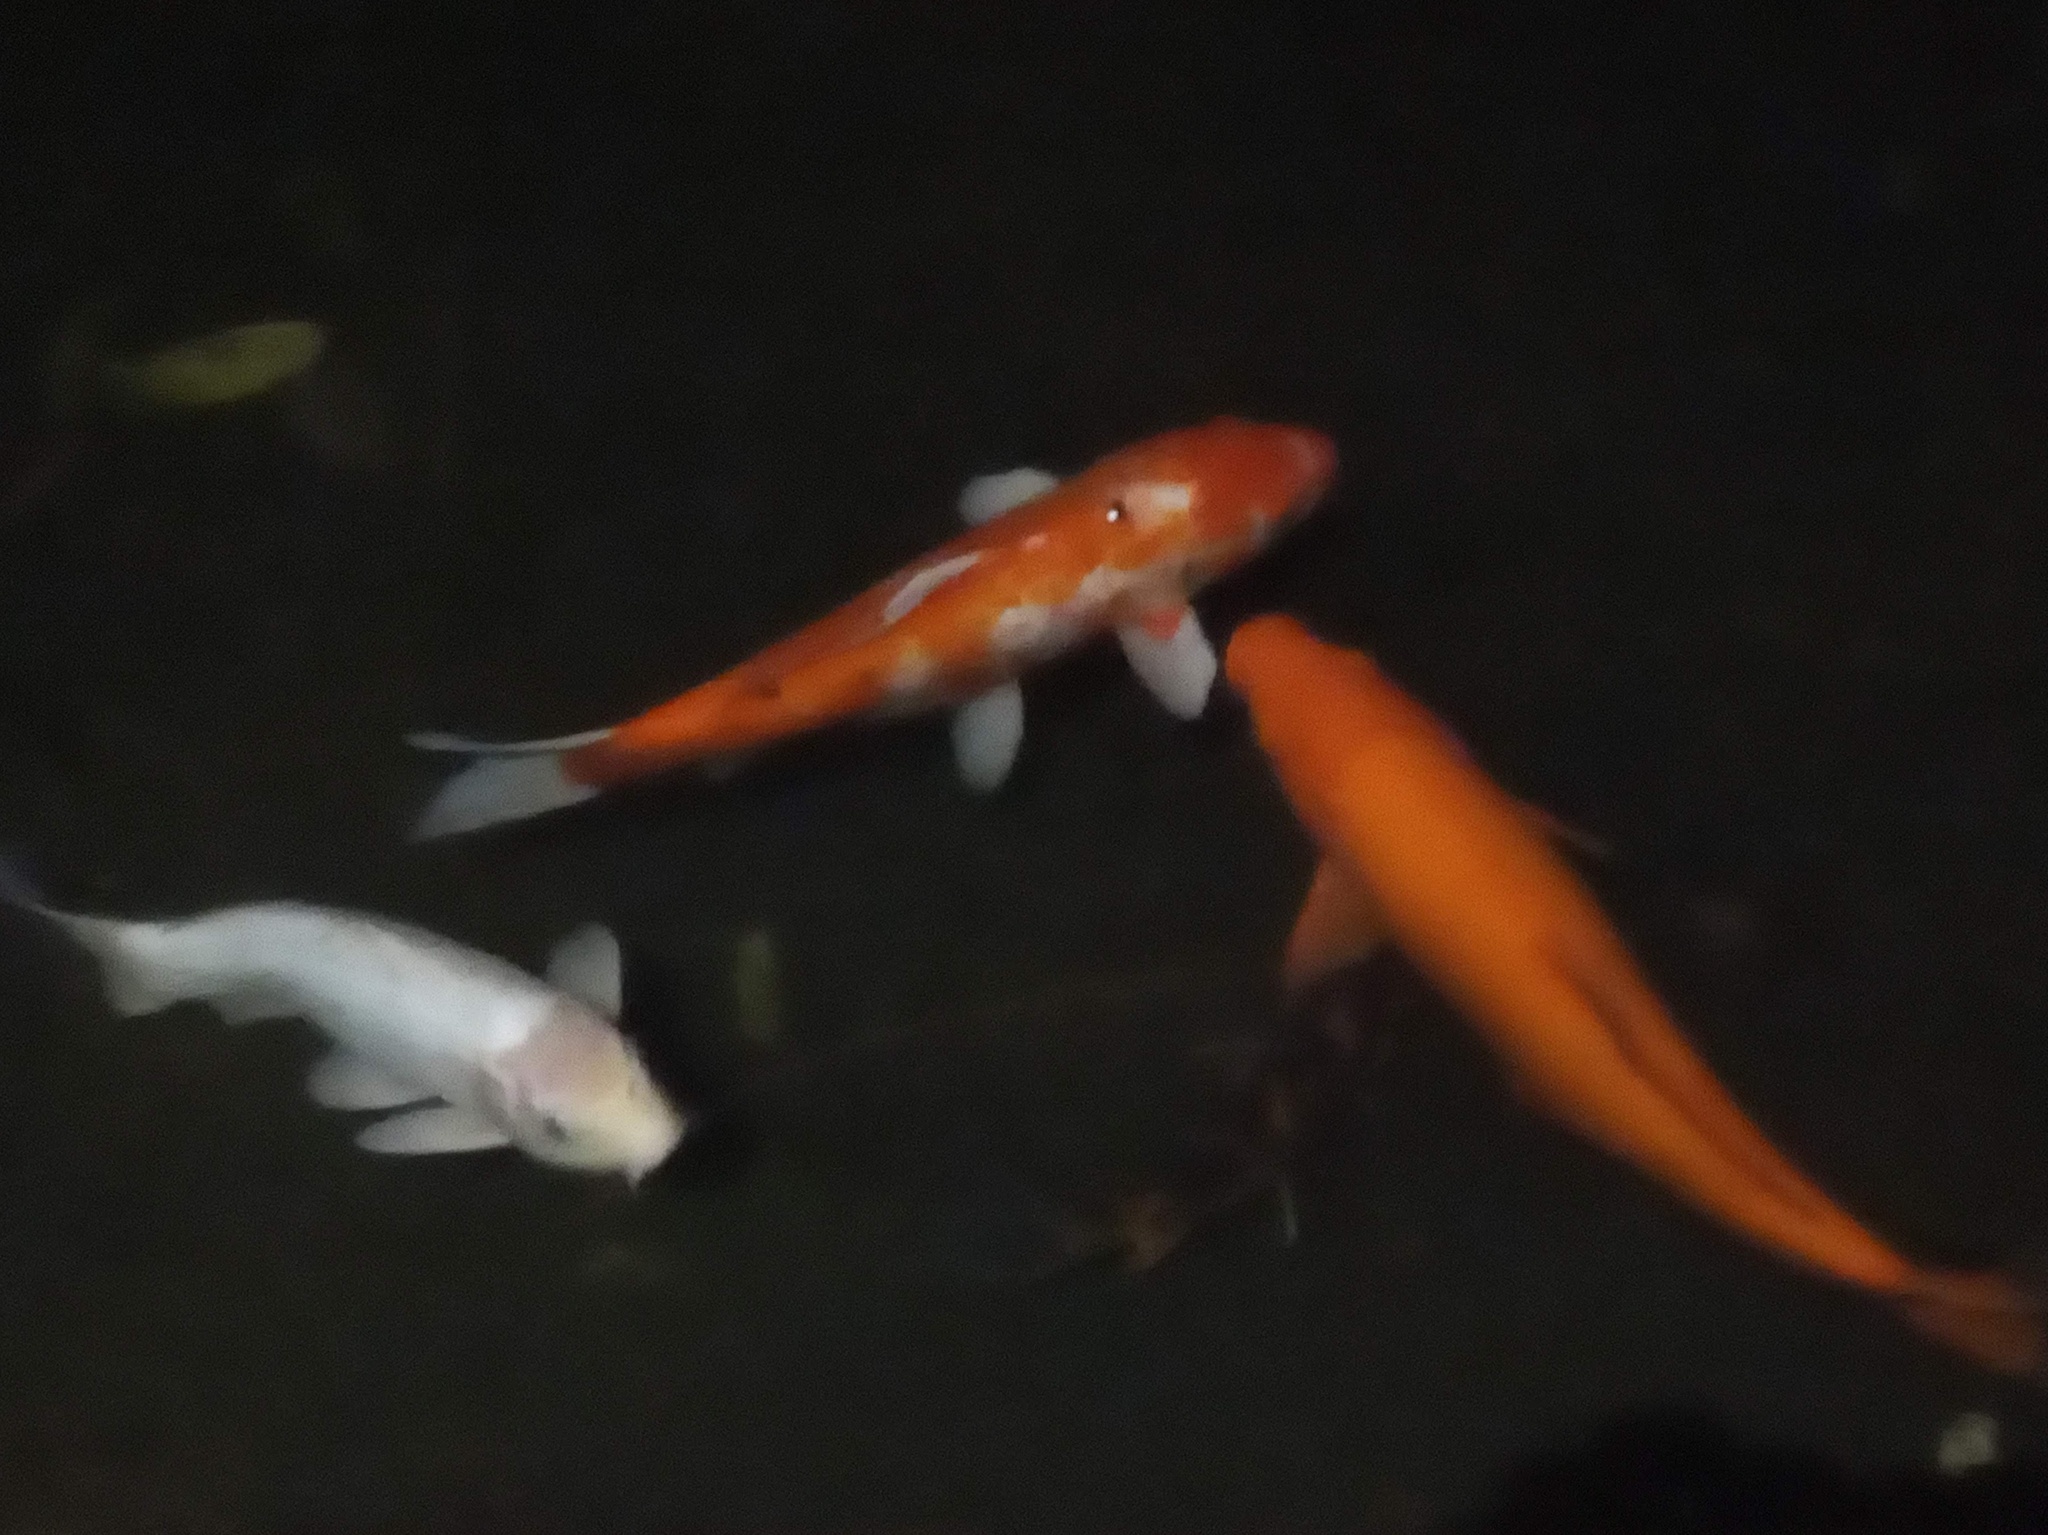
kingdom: Animalia
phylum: Chordata
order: Cypriniformes
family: Cyprinidae
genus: Cyprinus
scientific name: Cyprinus rubrofuscus
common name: Koi
